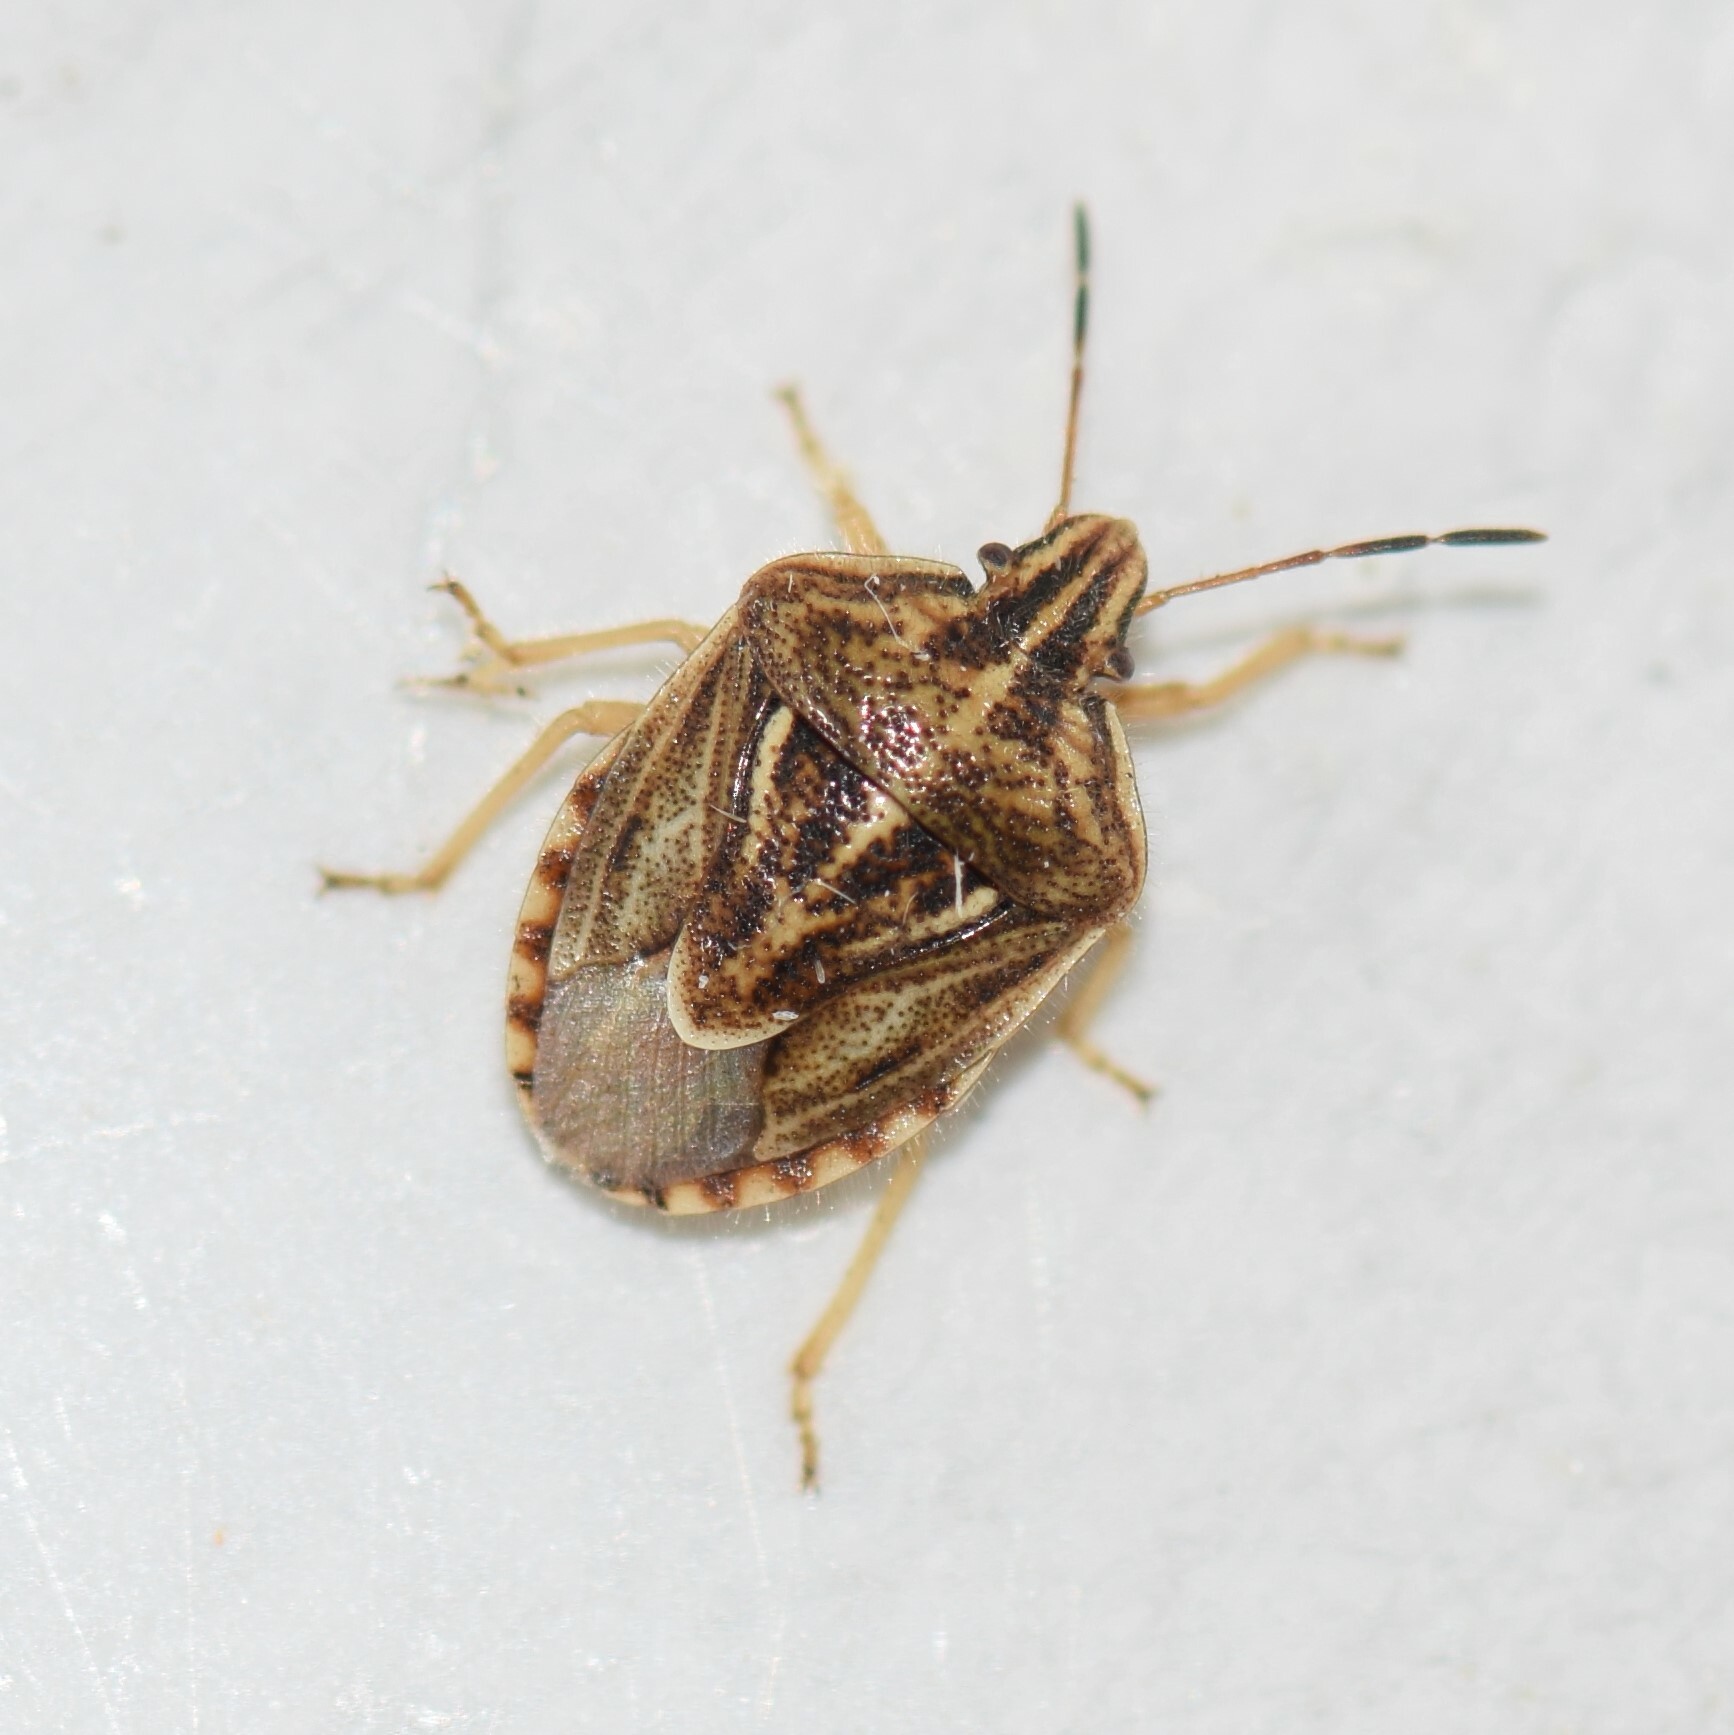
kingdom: Animalia
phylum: Arthropoda
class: Insecta
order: Hemiptera
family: Pentatomidae
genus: Trichopepla
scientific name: Trichopepla semivittata
